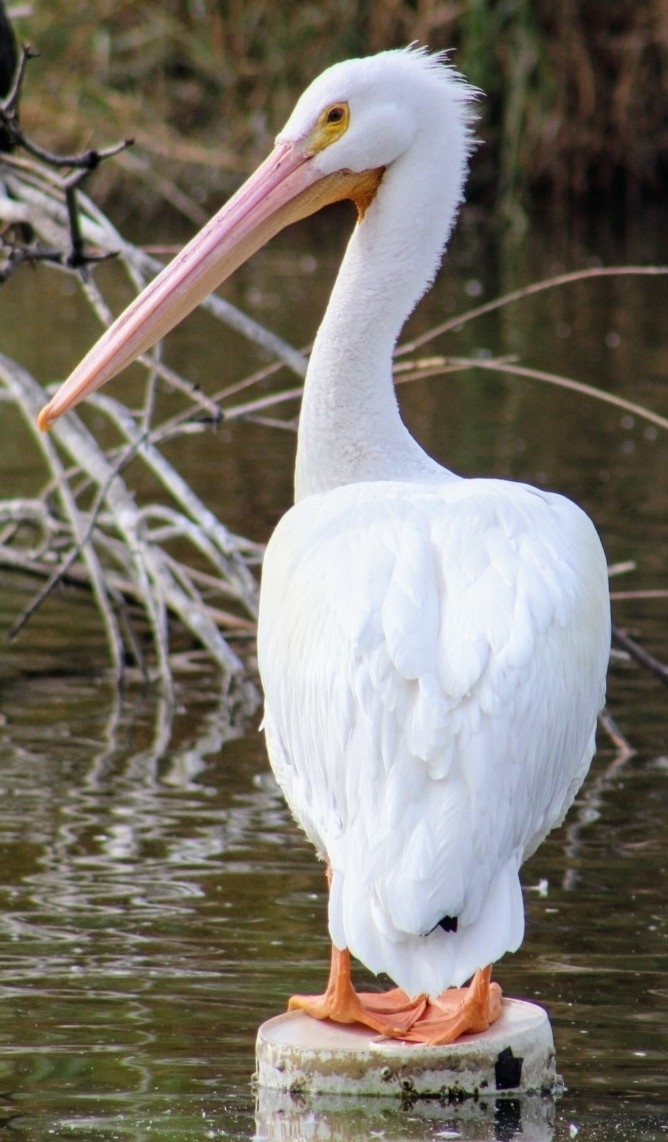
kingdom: Animalia
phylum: Chordata
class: Aves
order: Pelecaniformes
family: Pelecanidae
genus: Pelecanus
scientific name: Pelecanus erythrorhynchos
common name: American white pelican
